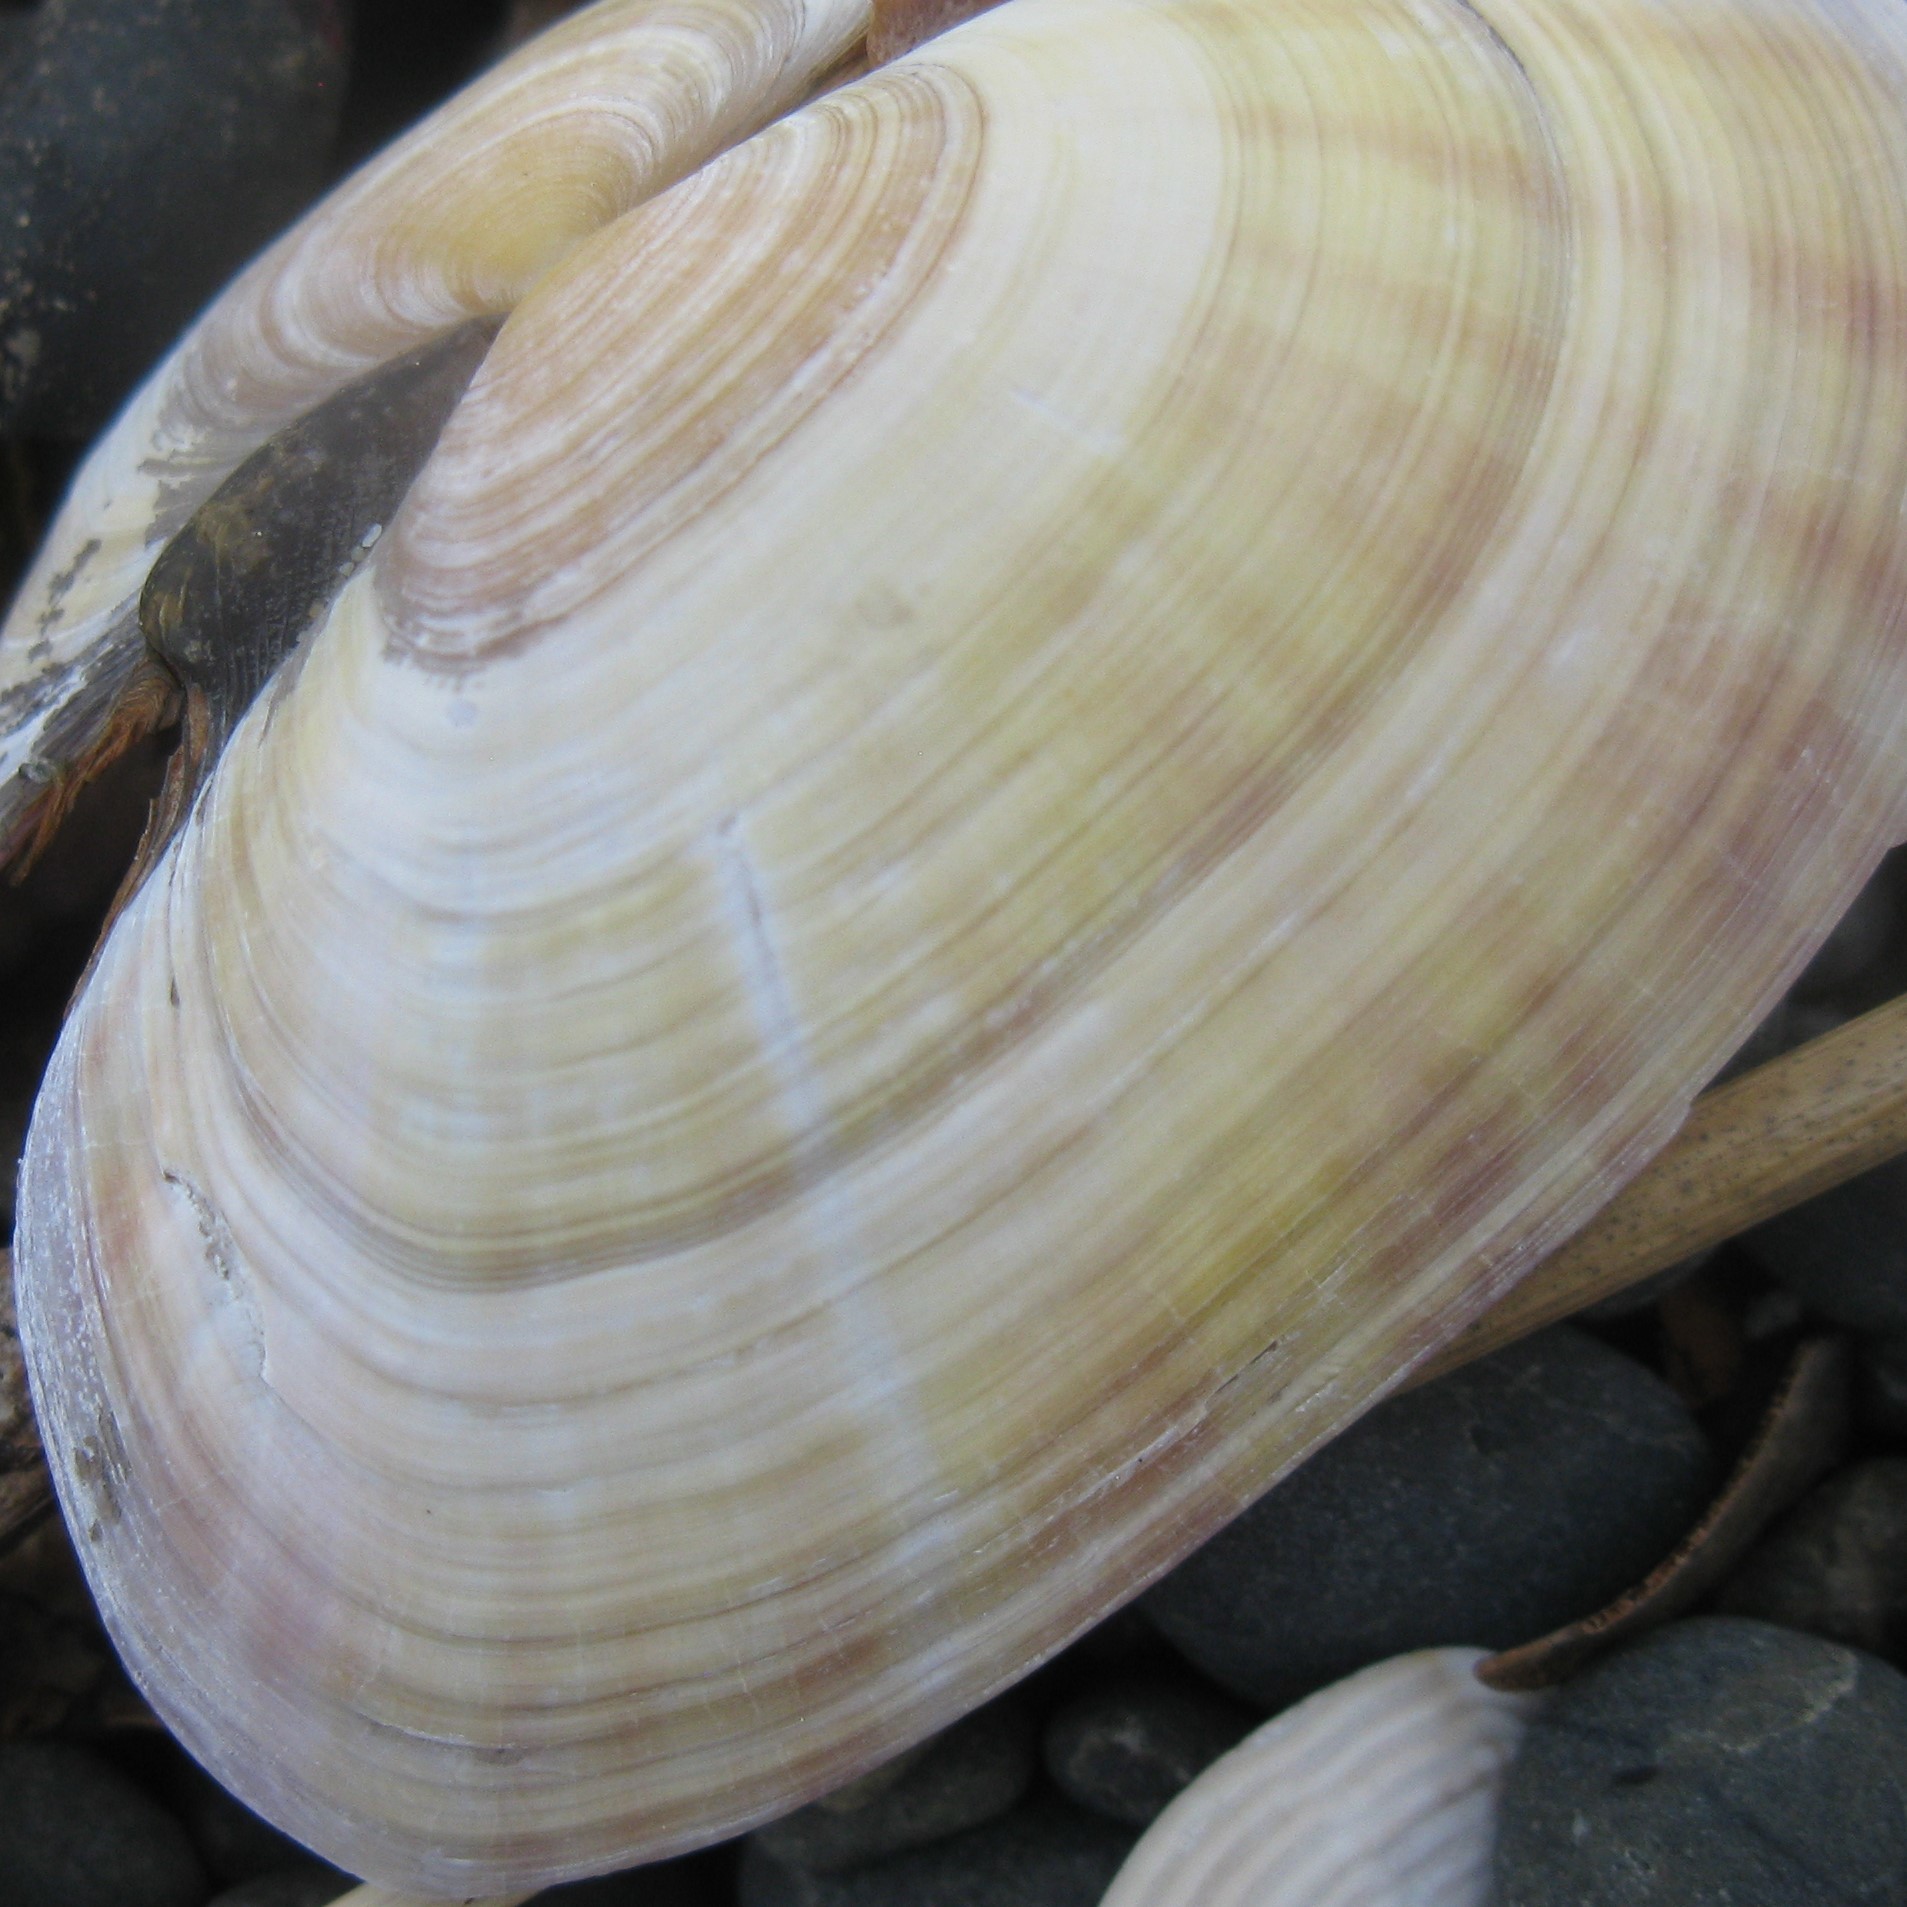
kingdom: Animalia
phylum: Mollusca
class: Bivalvia
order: Cardiida
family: Psammobiidae
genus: Gari
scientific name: Gari stangeri
